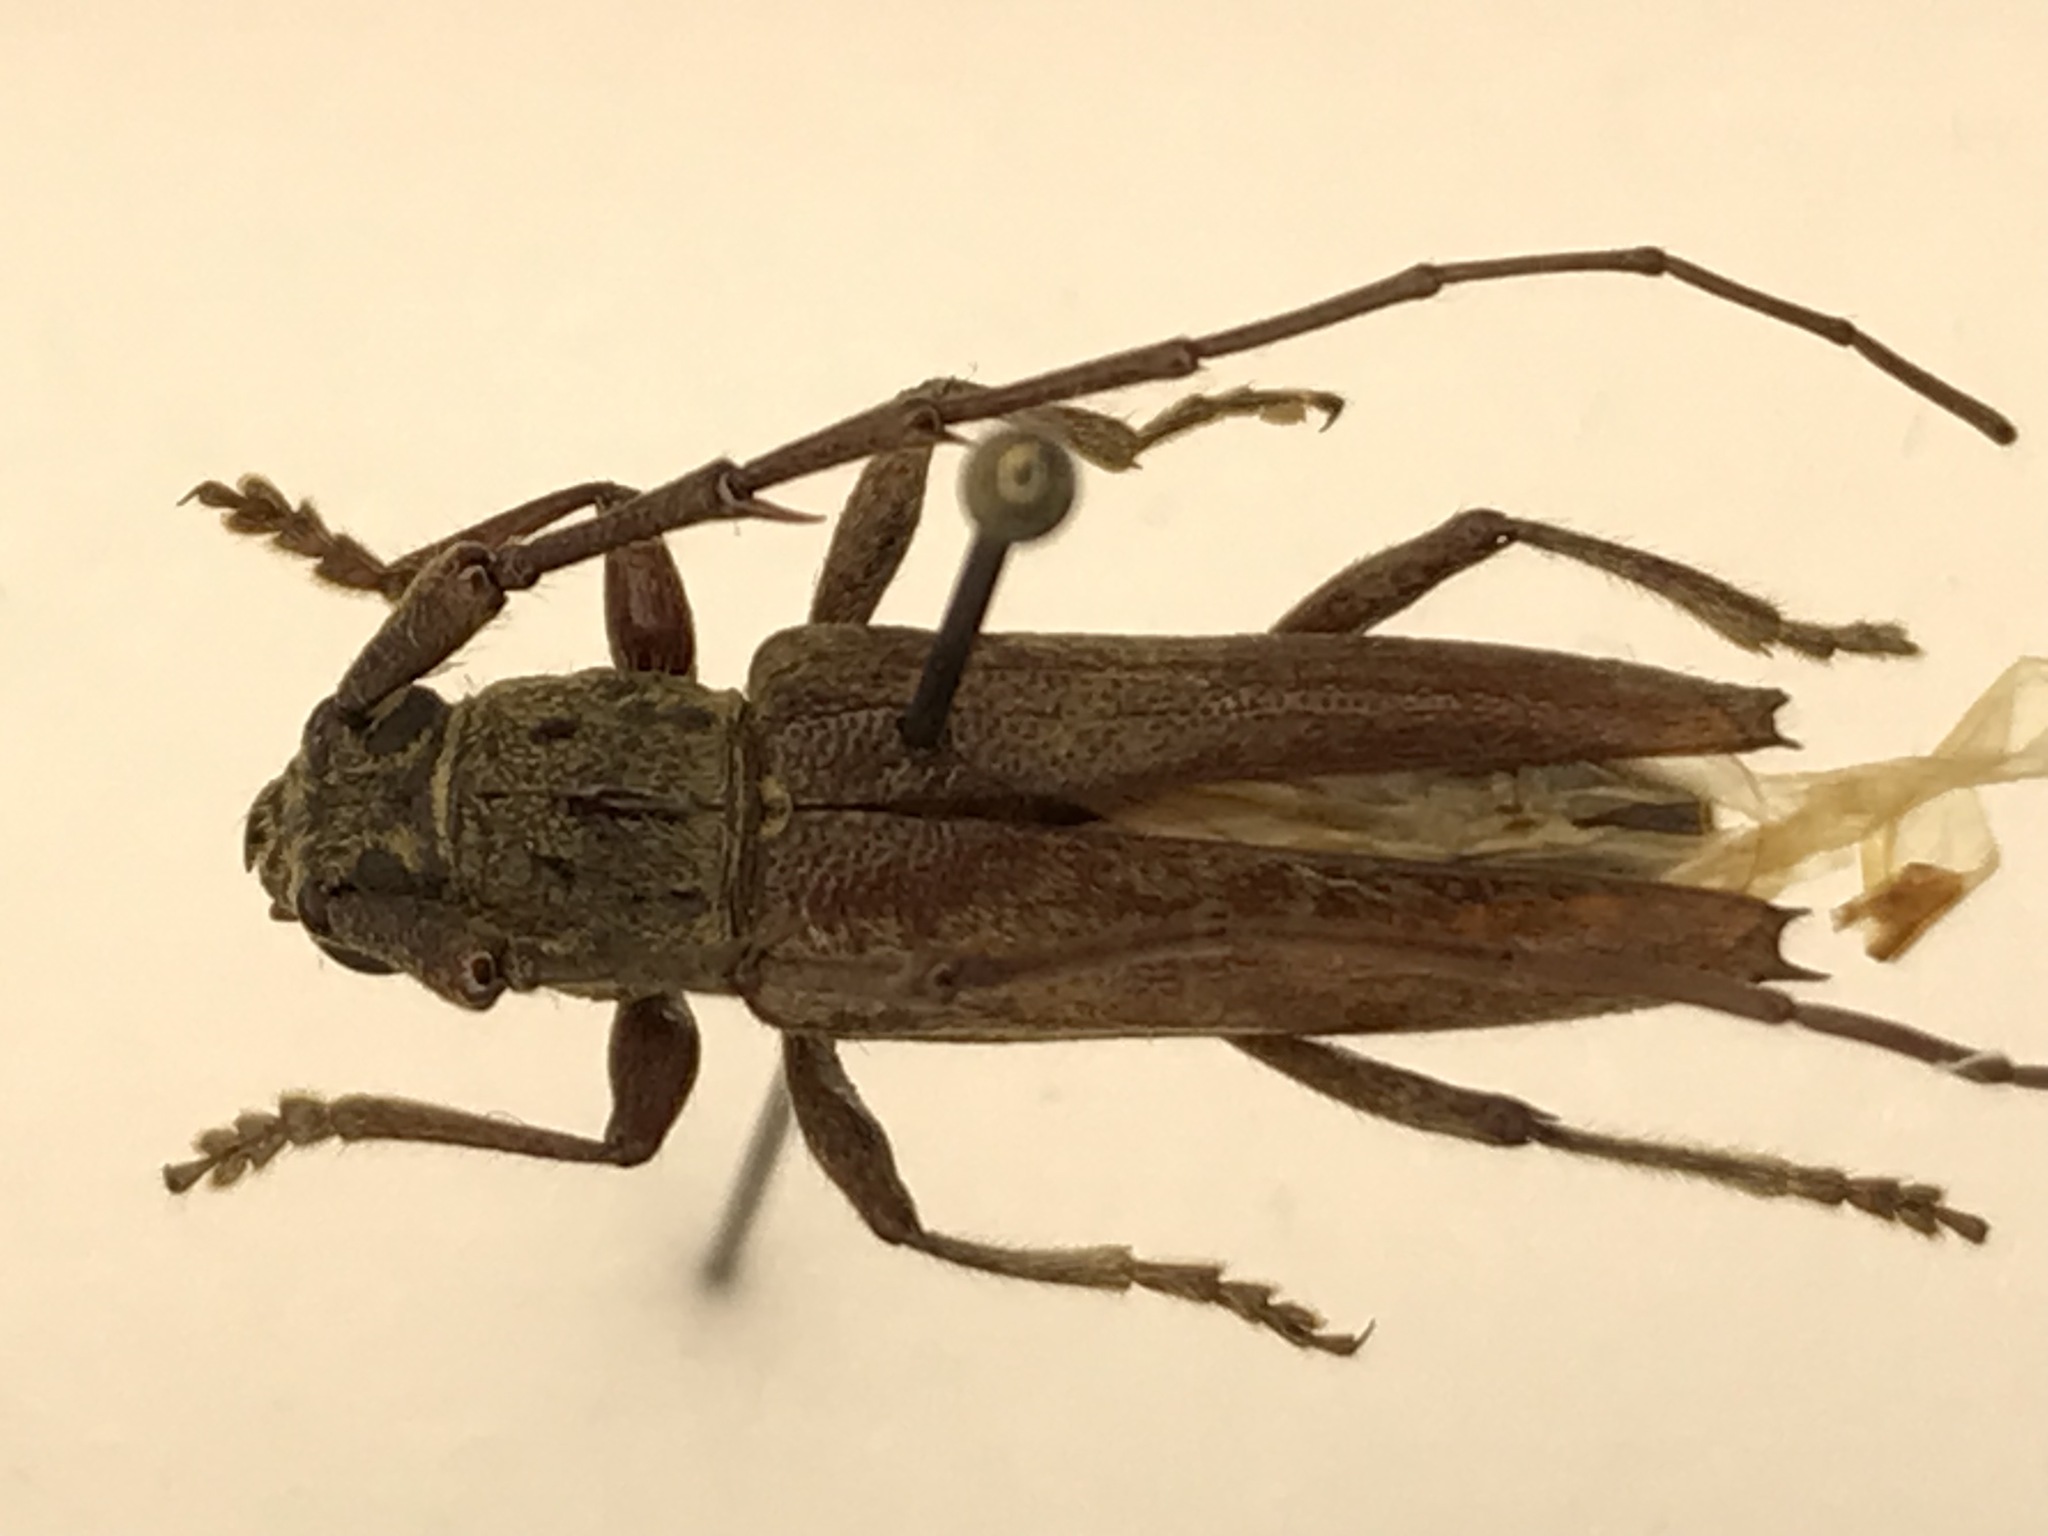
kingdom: Animalia
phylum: Arthropoda
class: Insecta
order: Coleoptera
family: Cerambycidae
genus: Elaphidion
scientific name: Elaphidion mucronatum
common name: Spined oak borer
